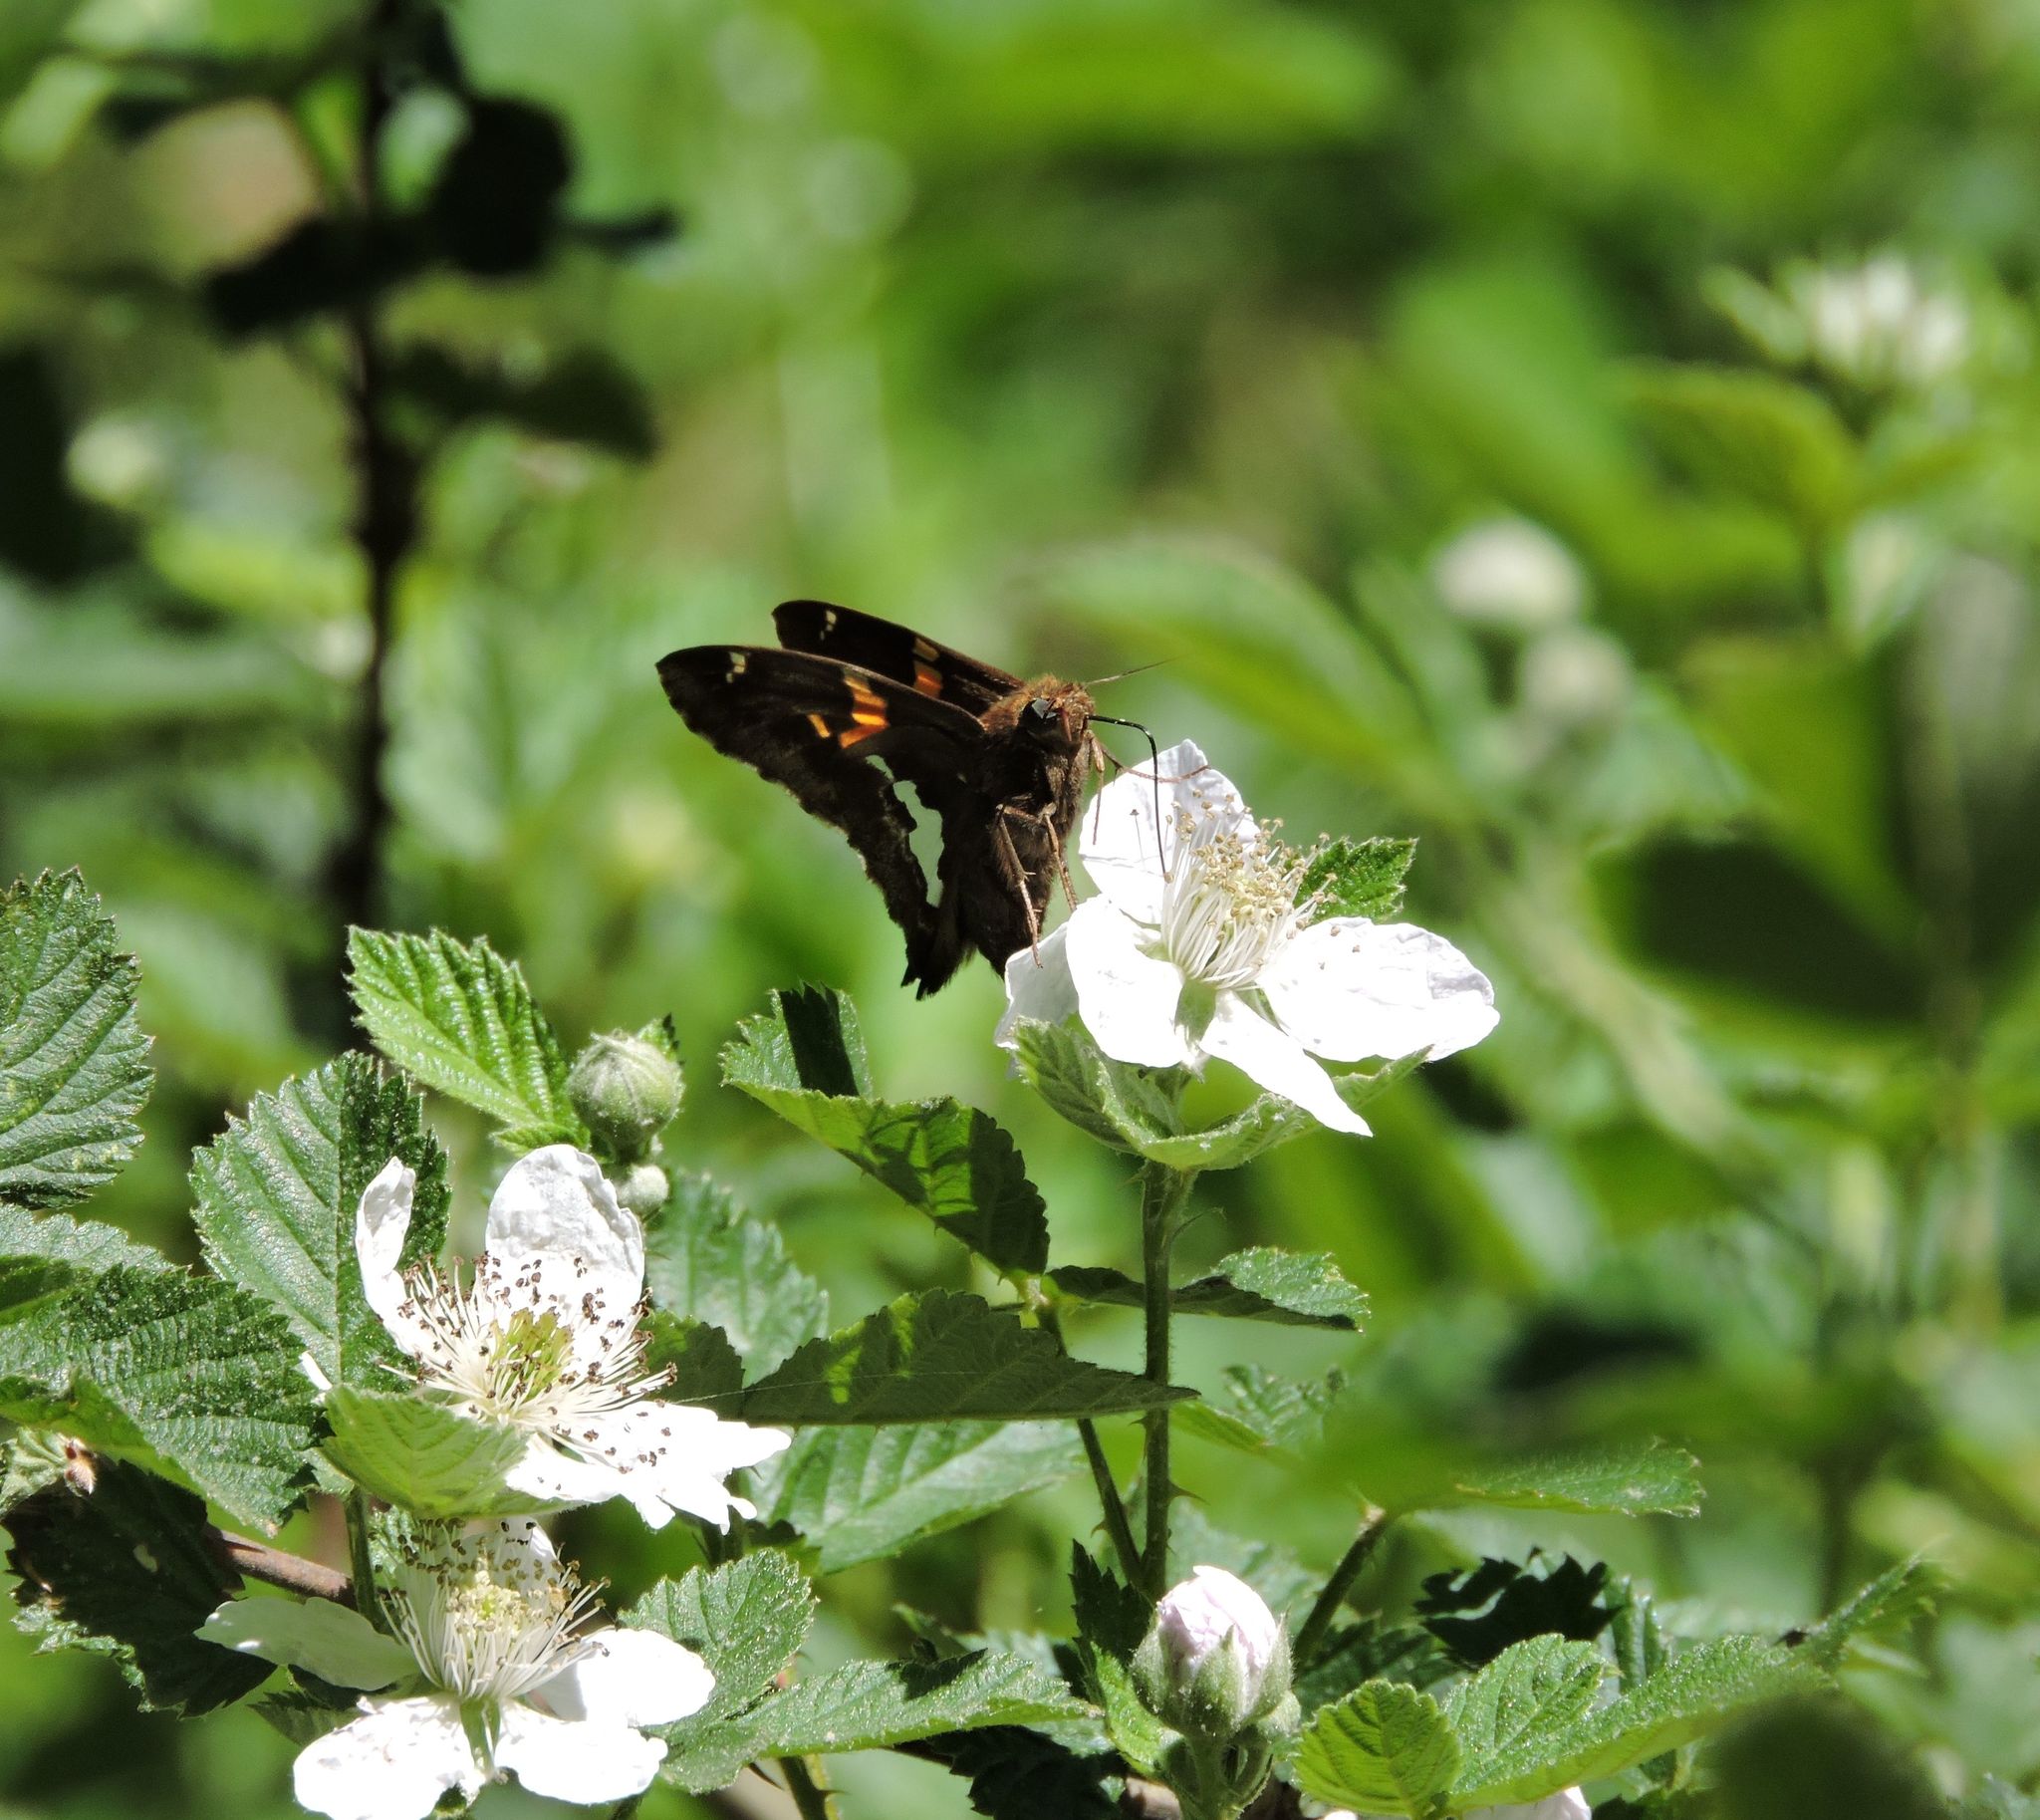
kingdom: Animalia
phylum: Arthropoda
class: Insecta
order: Lepidoptera
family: Hesperiidae
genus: Epargyreus
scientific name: Epargyreus clarus
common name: Silver-spotted skipper
